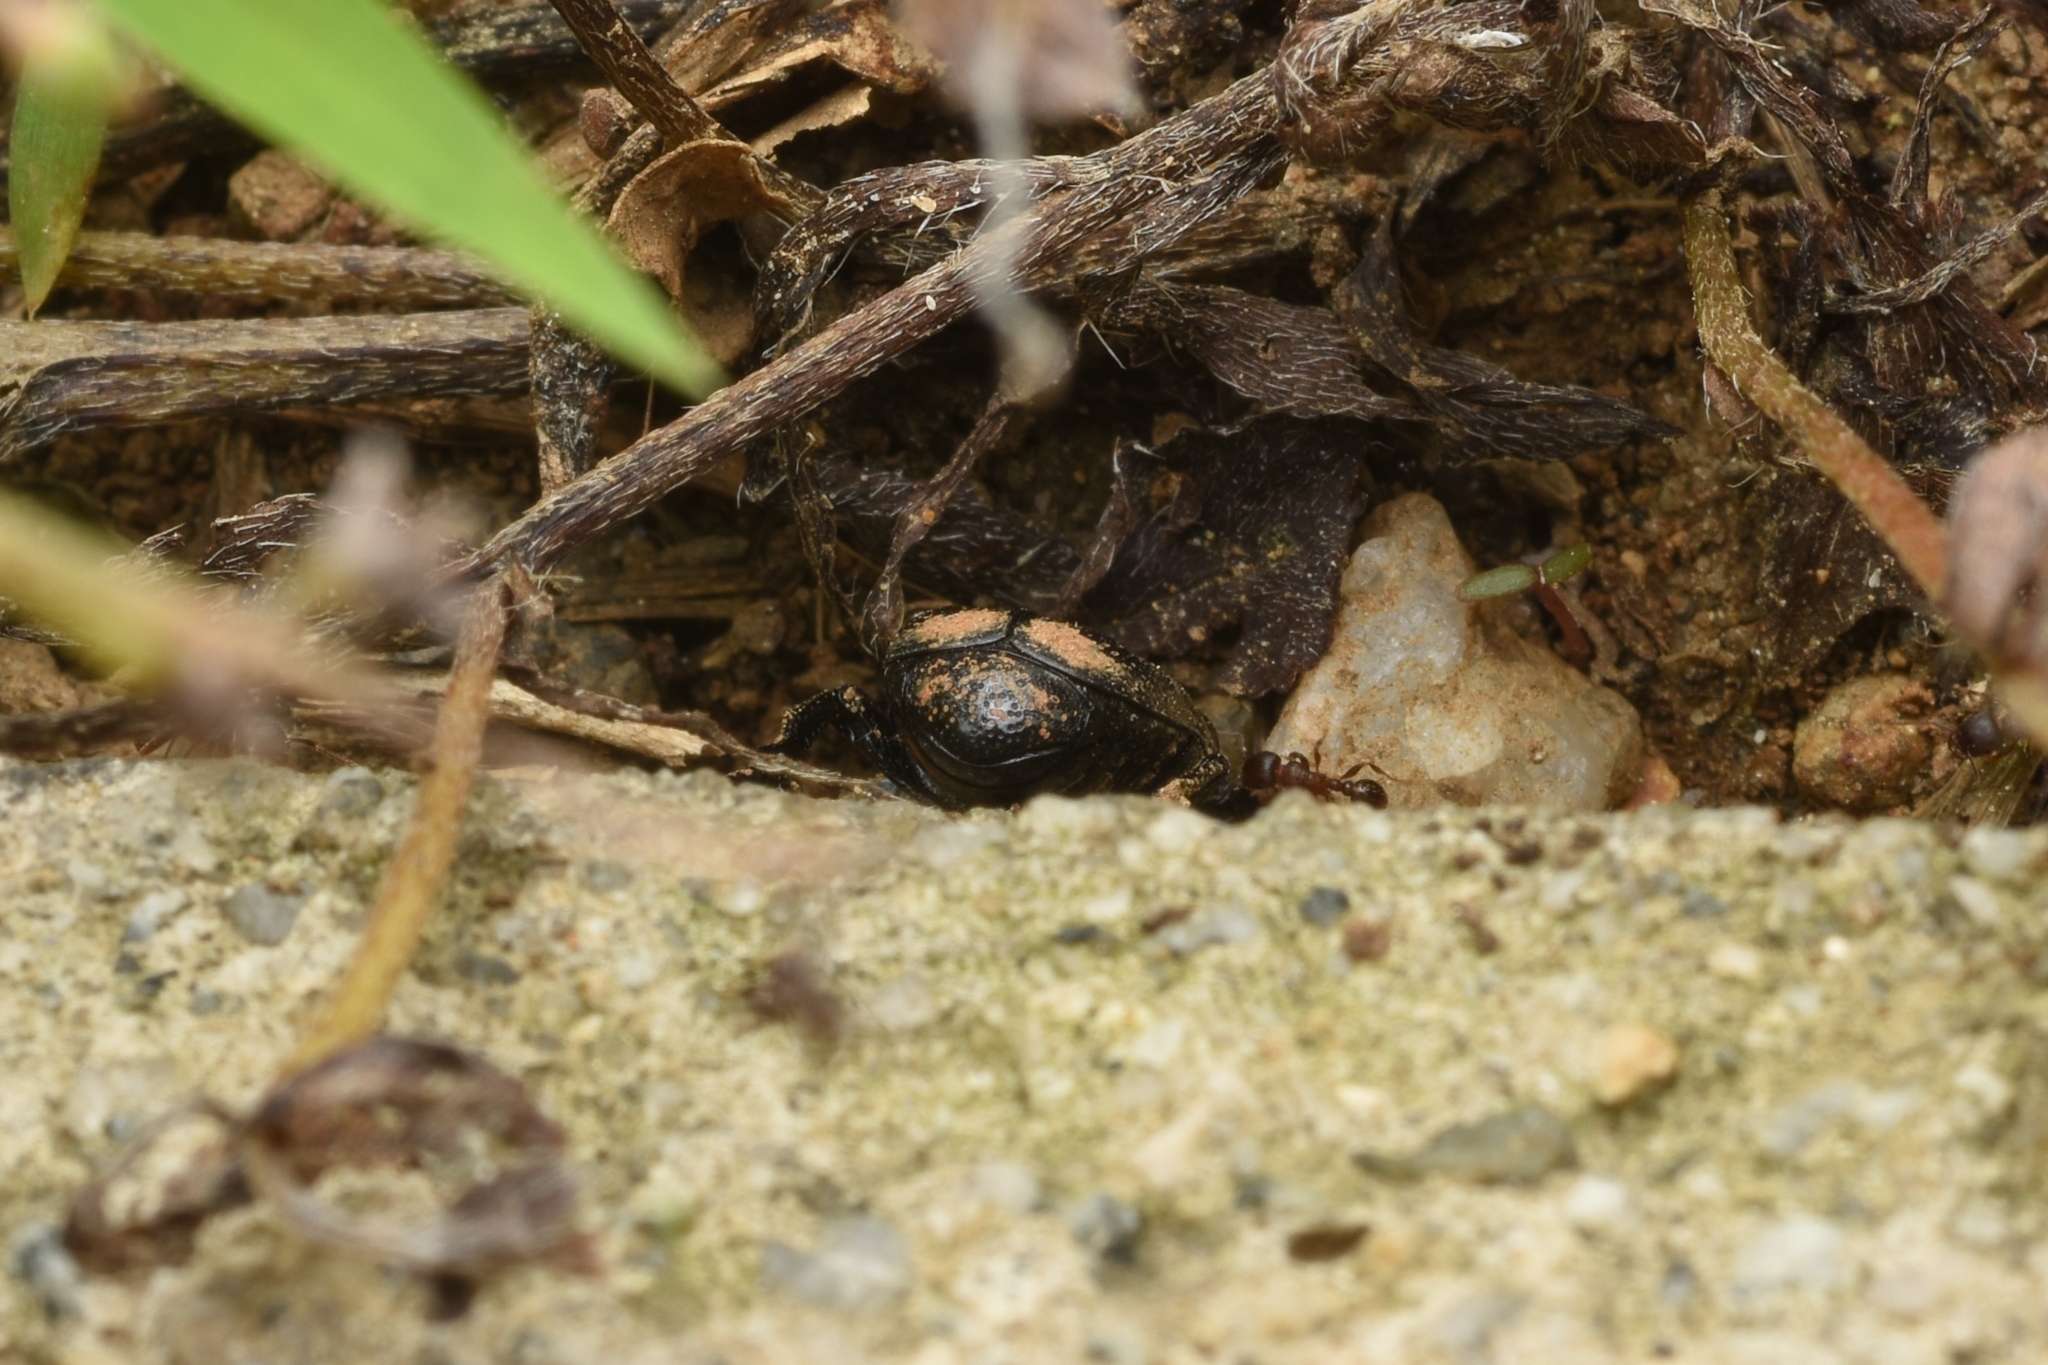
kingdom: Animalia
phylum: Arthropoda
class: Insecta
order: Coleoptera
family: Scarabaeidae
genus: Clinterocera
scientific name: Clinterocera scabrosa
